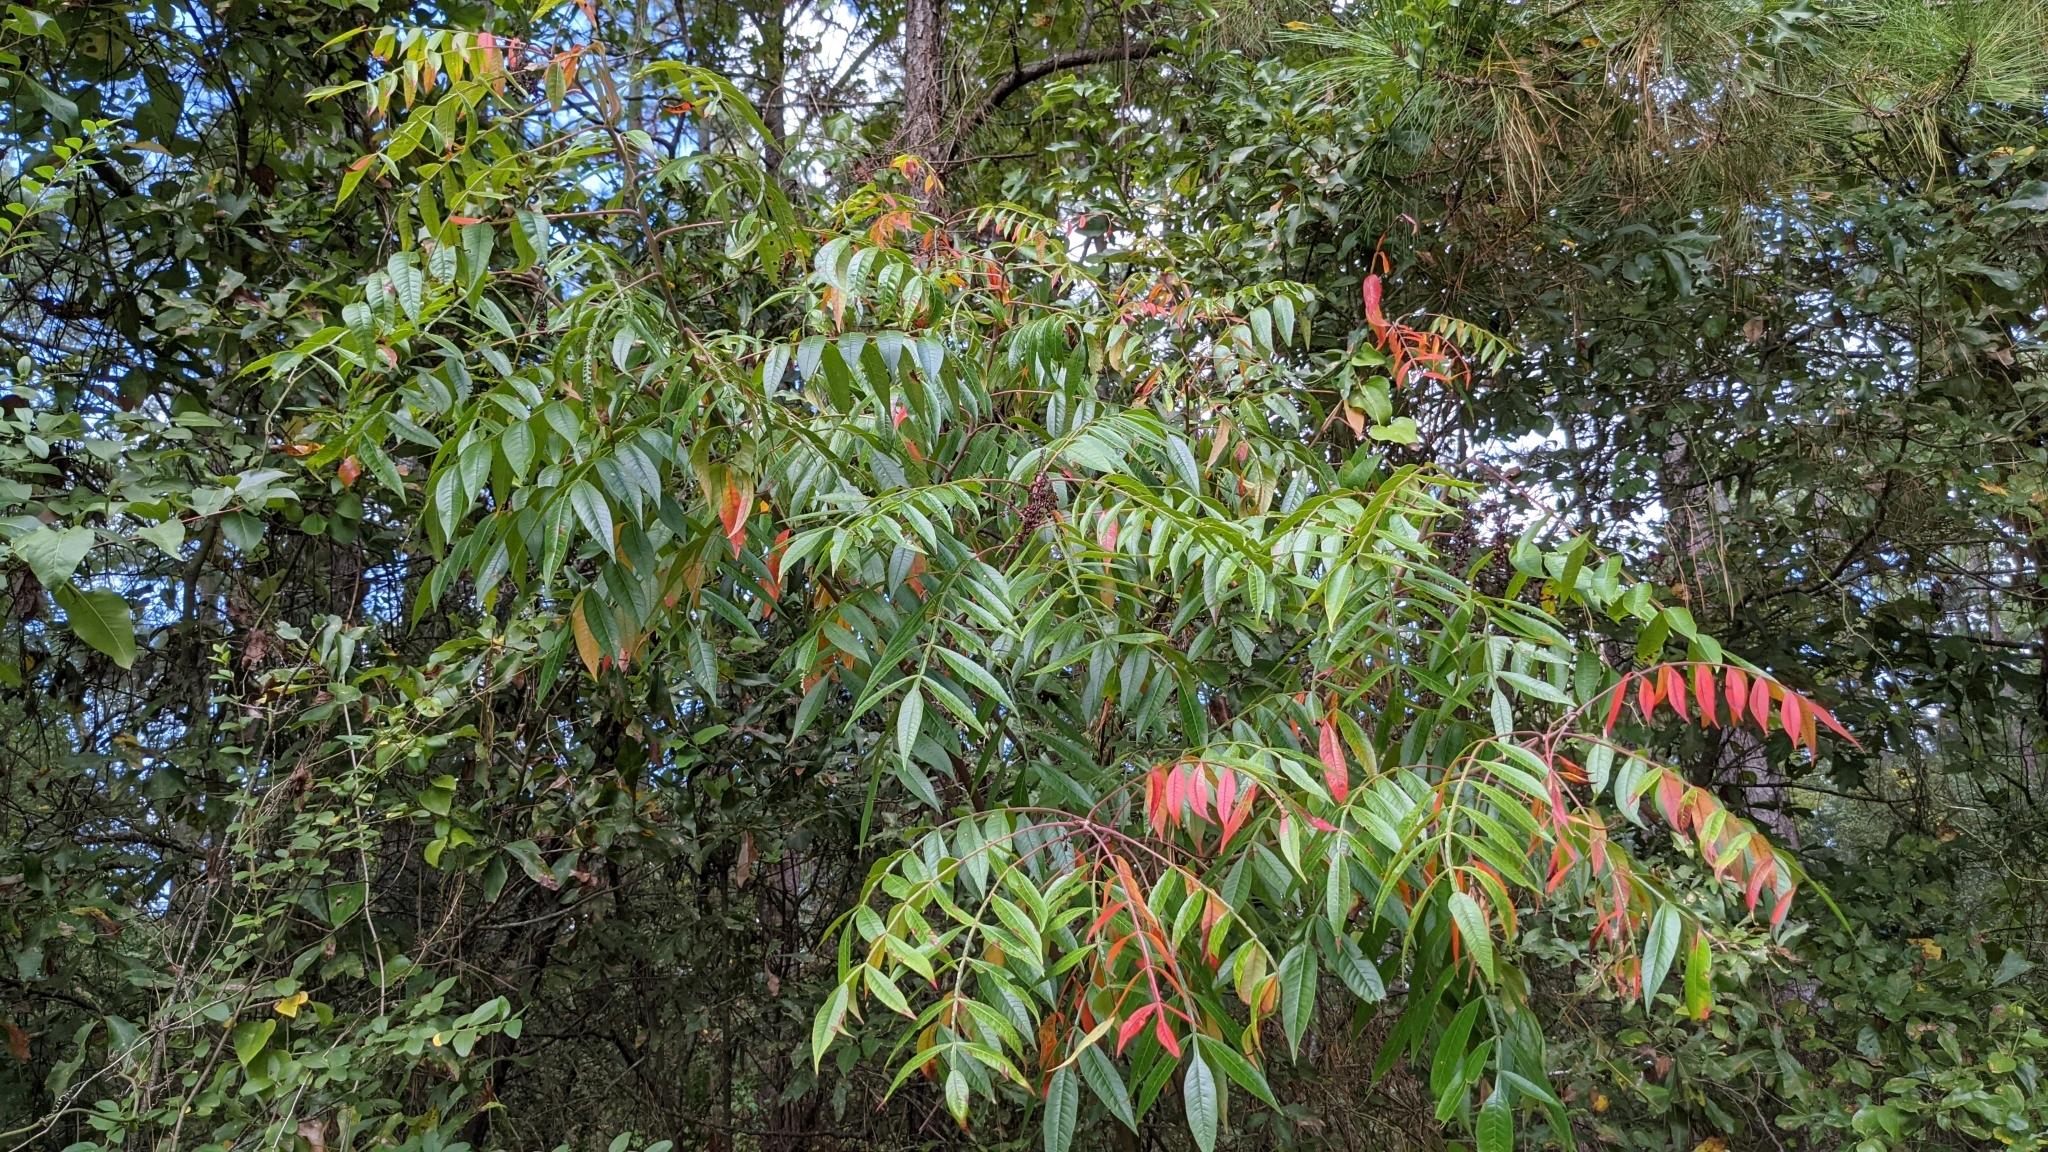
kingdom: Plantae
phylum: Tracheophyta
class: Magnoliopsida
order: Sapindales
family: Anacardiaceae
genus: Rhus
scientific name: Rhus copallina
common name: Shining sumac
